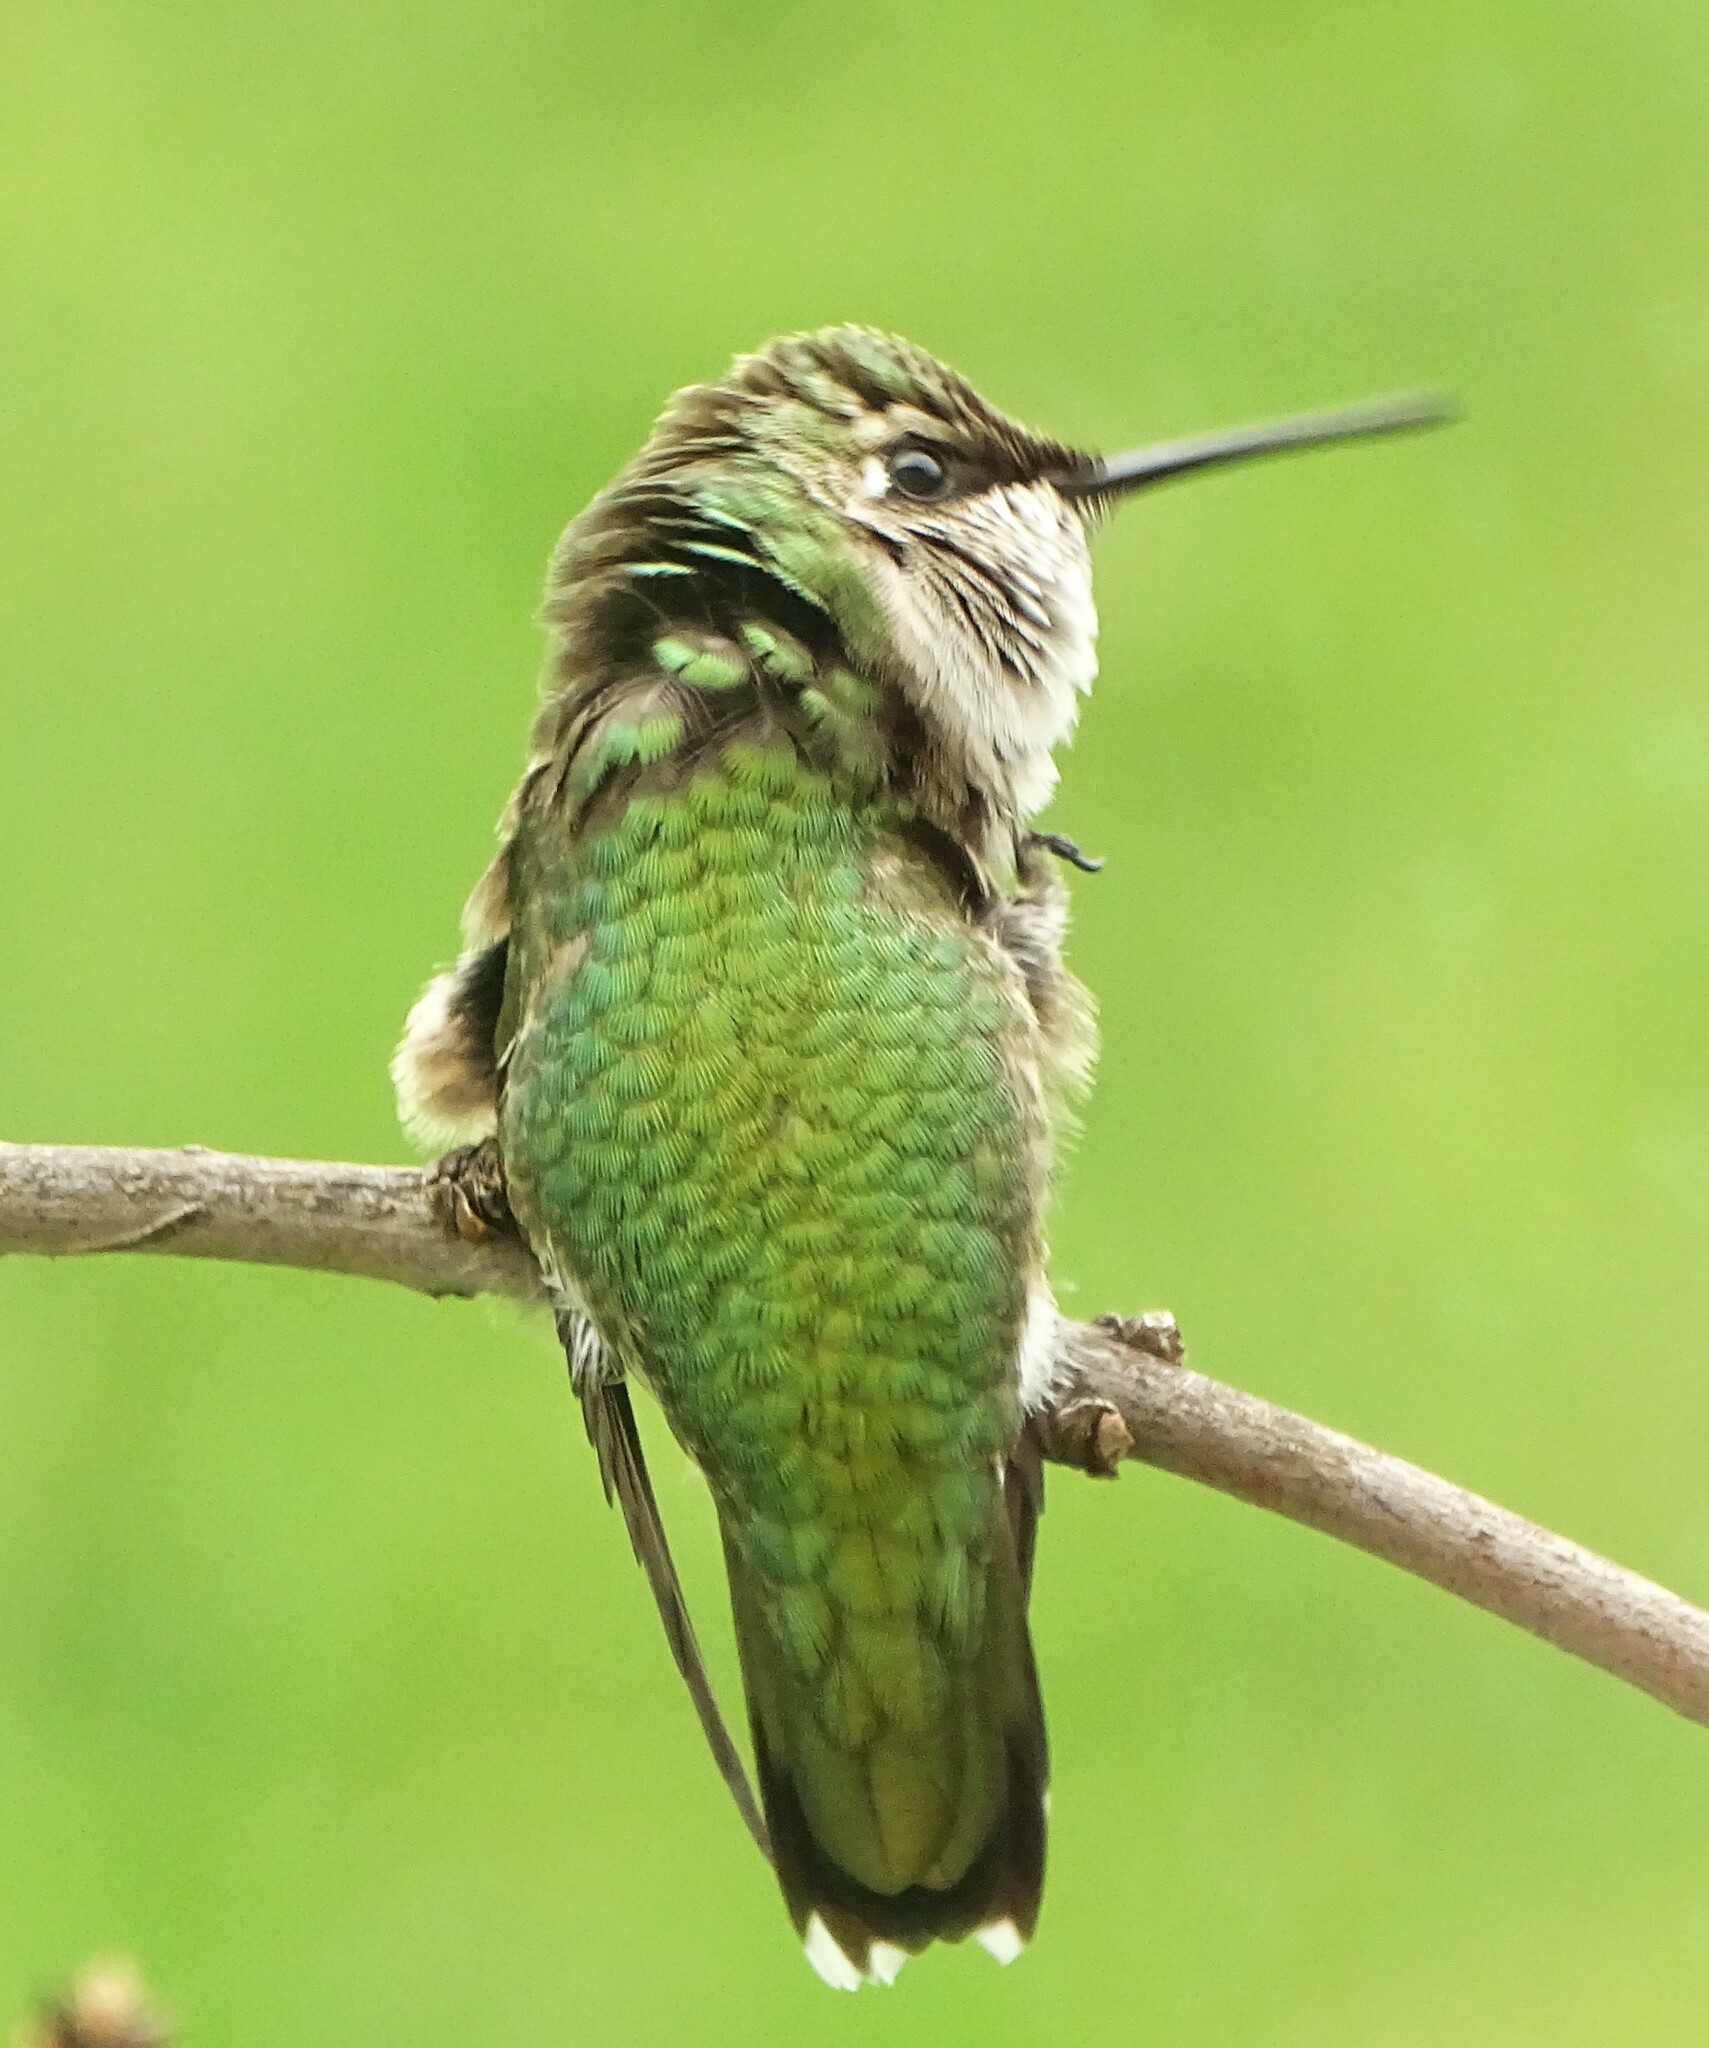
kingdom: Animalia
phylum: Chordata
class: Aves
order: Apodiformes
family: Trochilidae
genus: Archilochus
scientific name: Archilochus colubris
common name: Ruby-throated hummingbird
